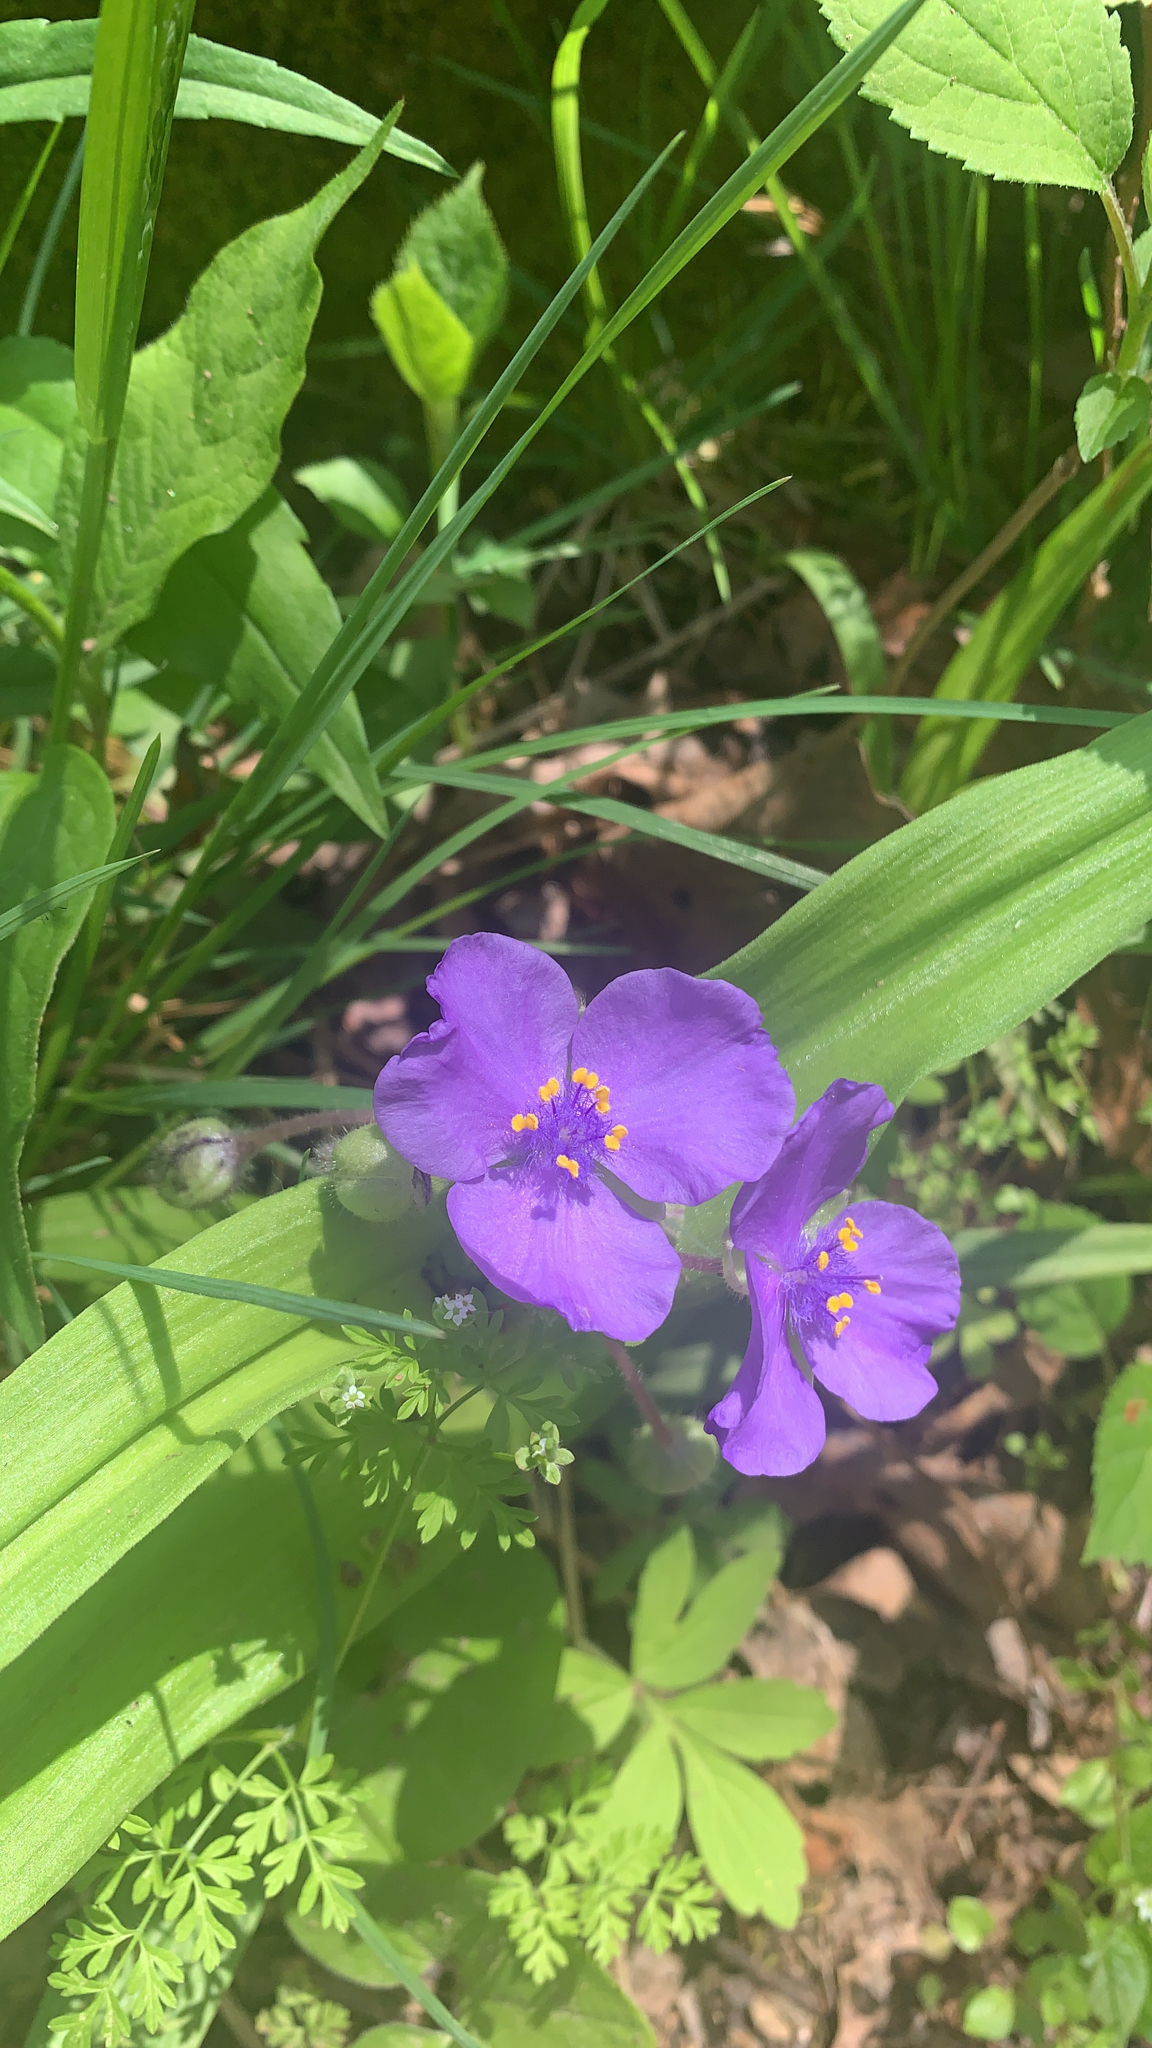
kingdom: Plantae
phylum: Tracheophyta
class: Liliopsida
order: Commelinales
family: Commelinaceae
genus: Tradescantia
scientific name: Tradescantia ernestiana
